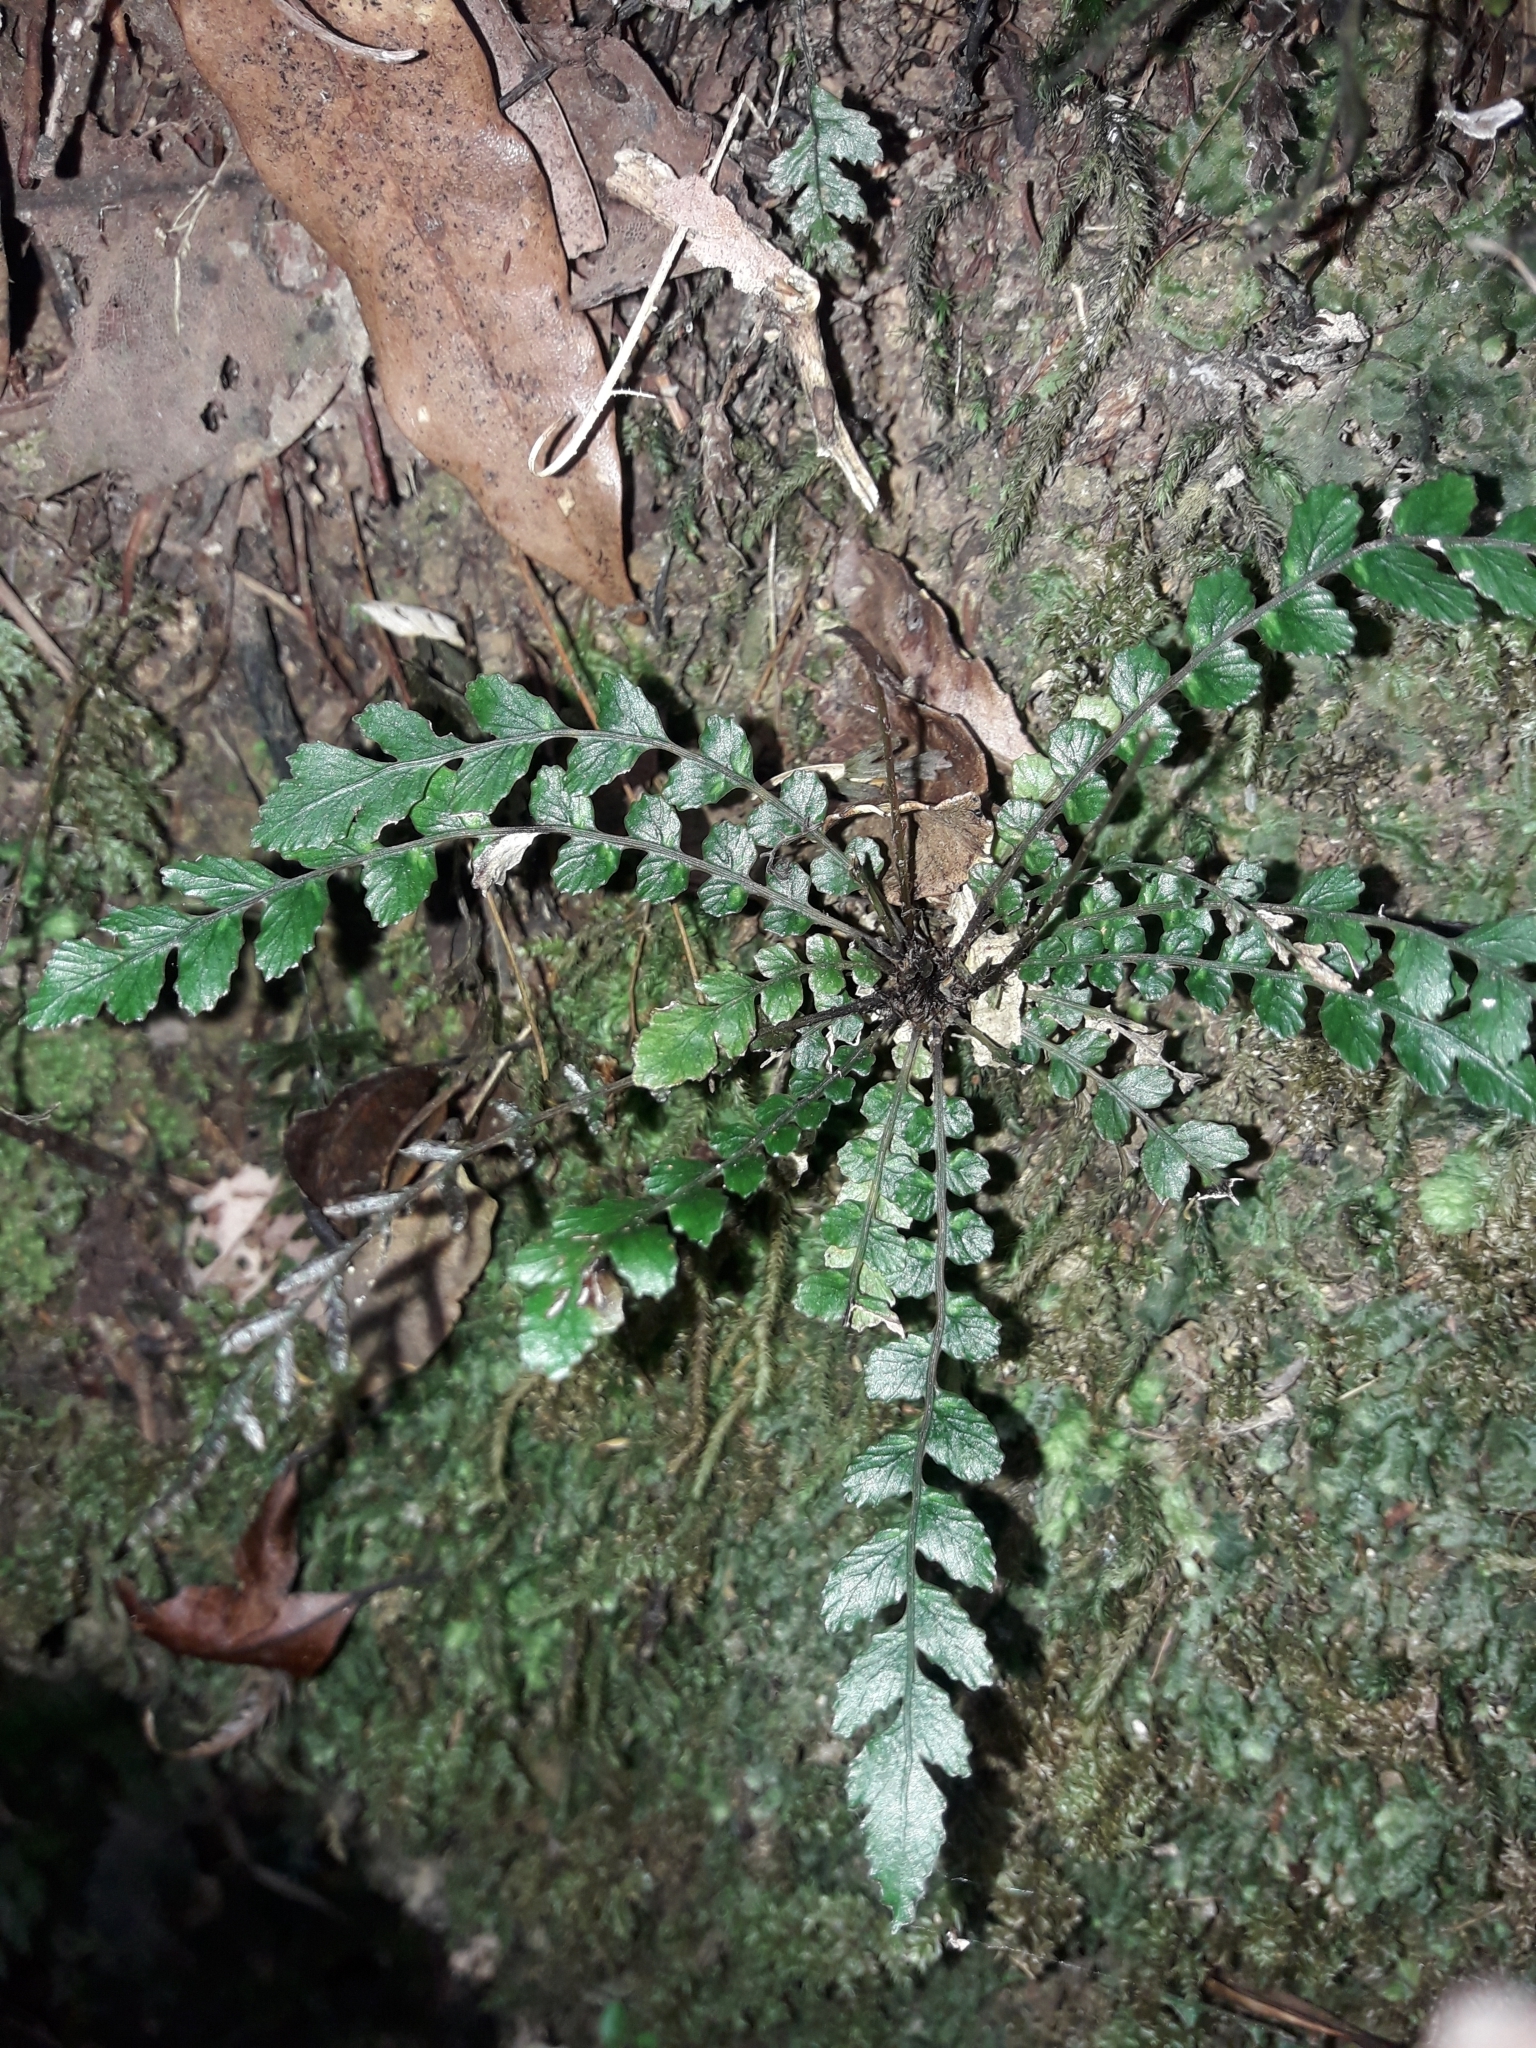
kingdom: Plantae
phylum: Tracheophyta
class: Polypodiopsida
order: Polypodiales
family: Blechnaceae
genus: Austroblechnum
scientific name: Austroblechnum membranaceum
